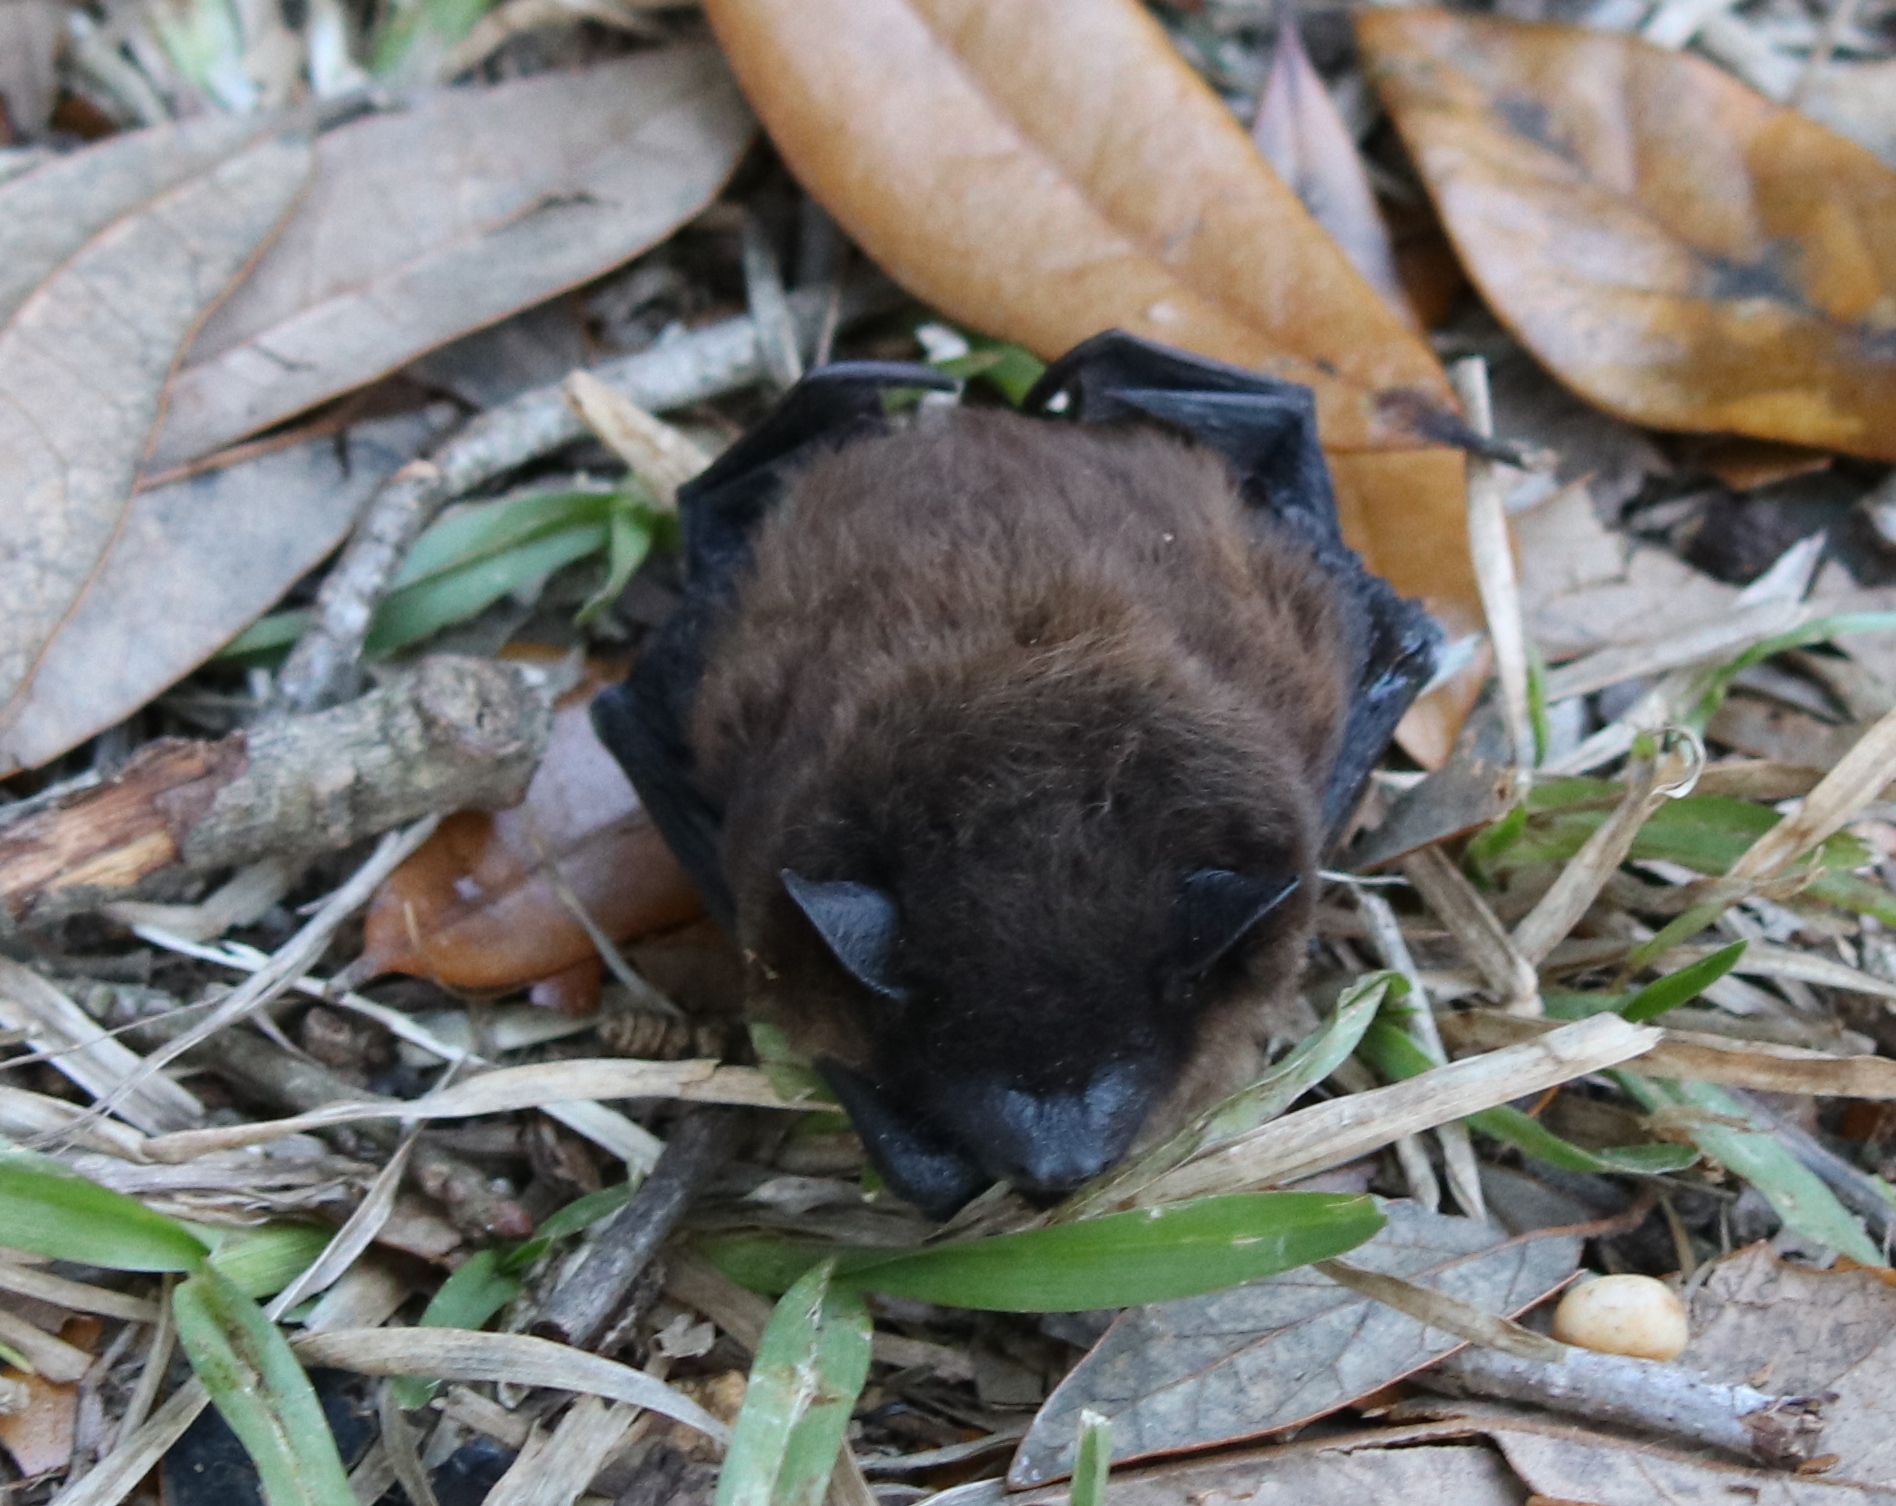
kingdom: Animalia
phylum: Chordata
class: Mammalia
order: Chiroptera
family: Vespertilionidae
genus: Nycticeius
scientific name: Nycticeius humeralis
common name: Evening bat
